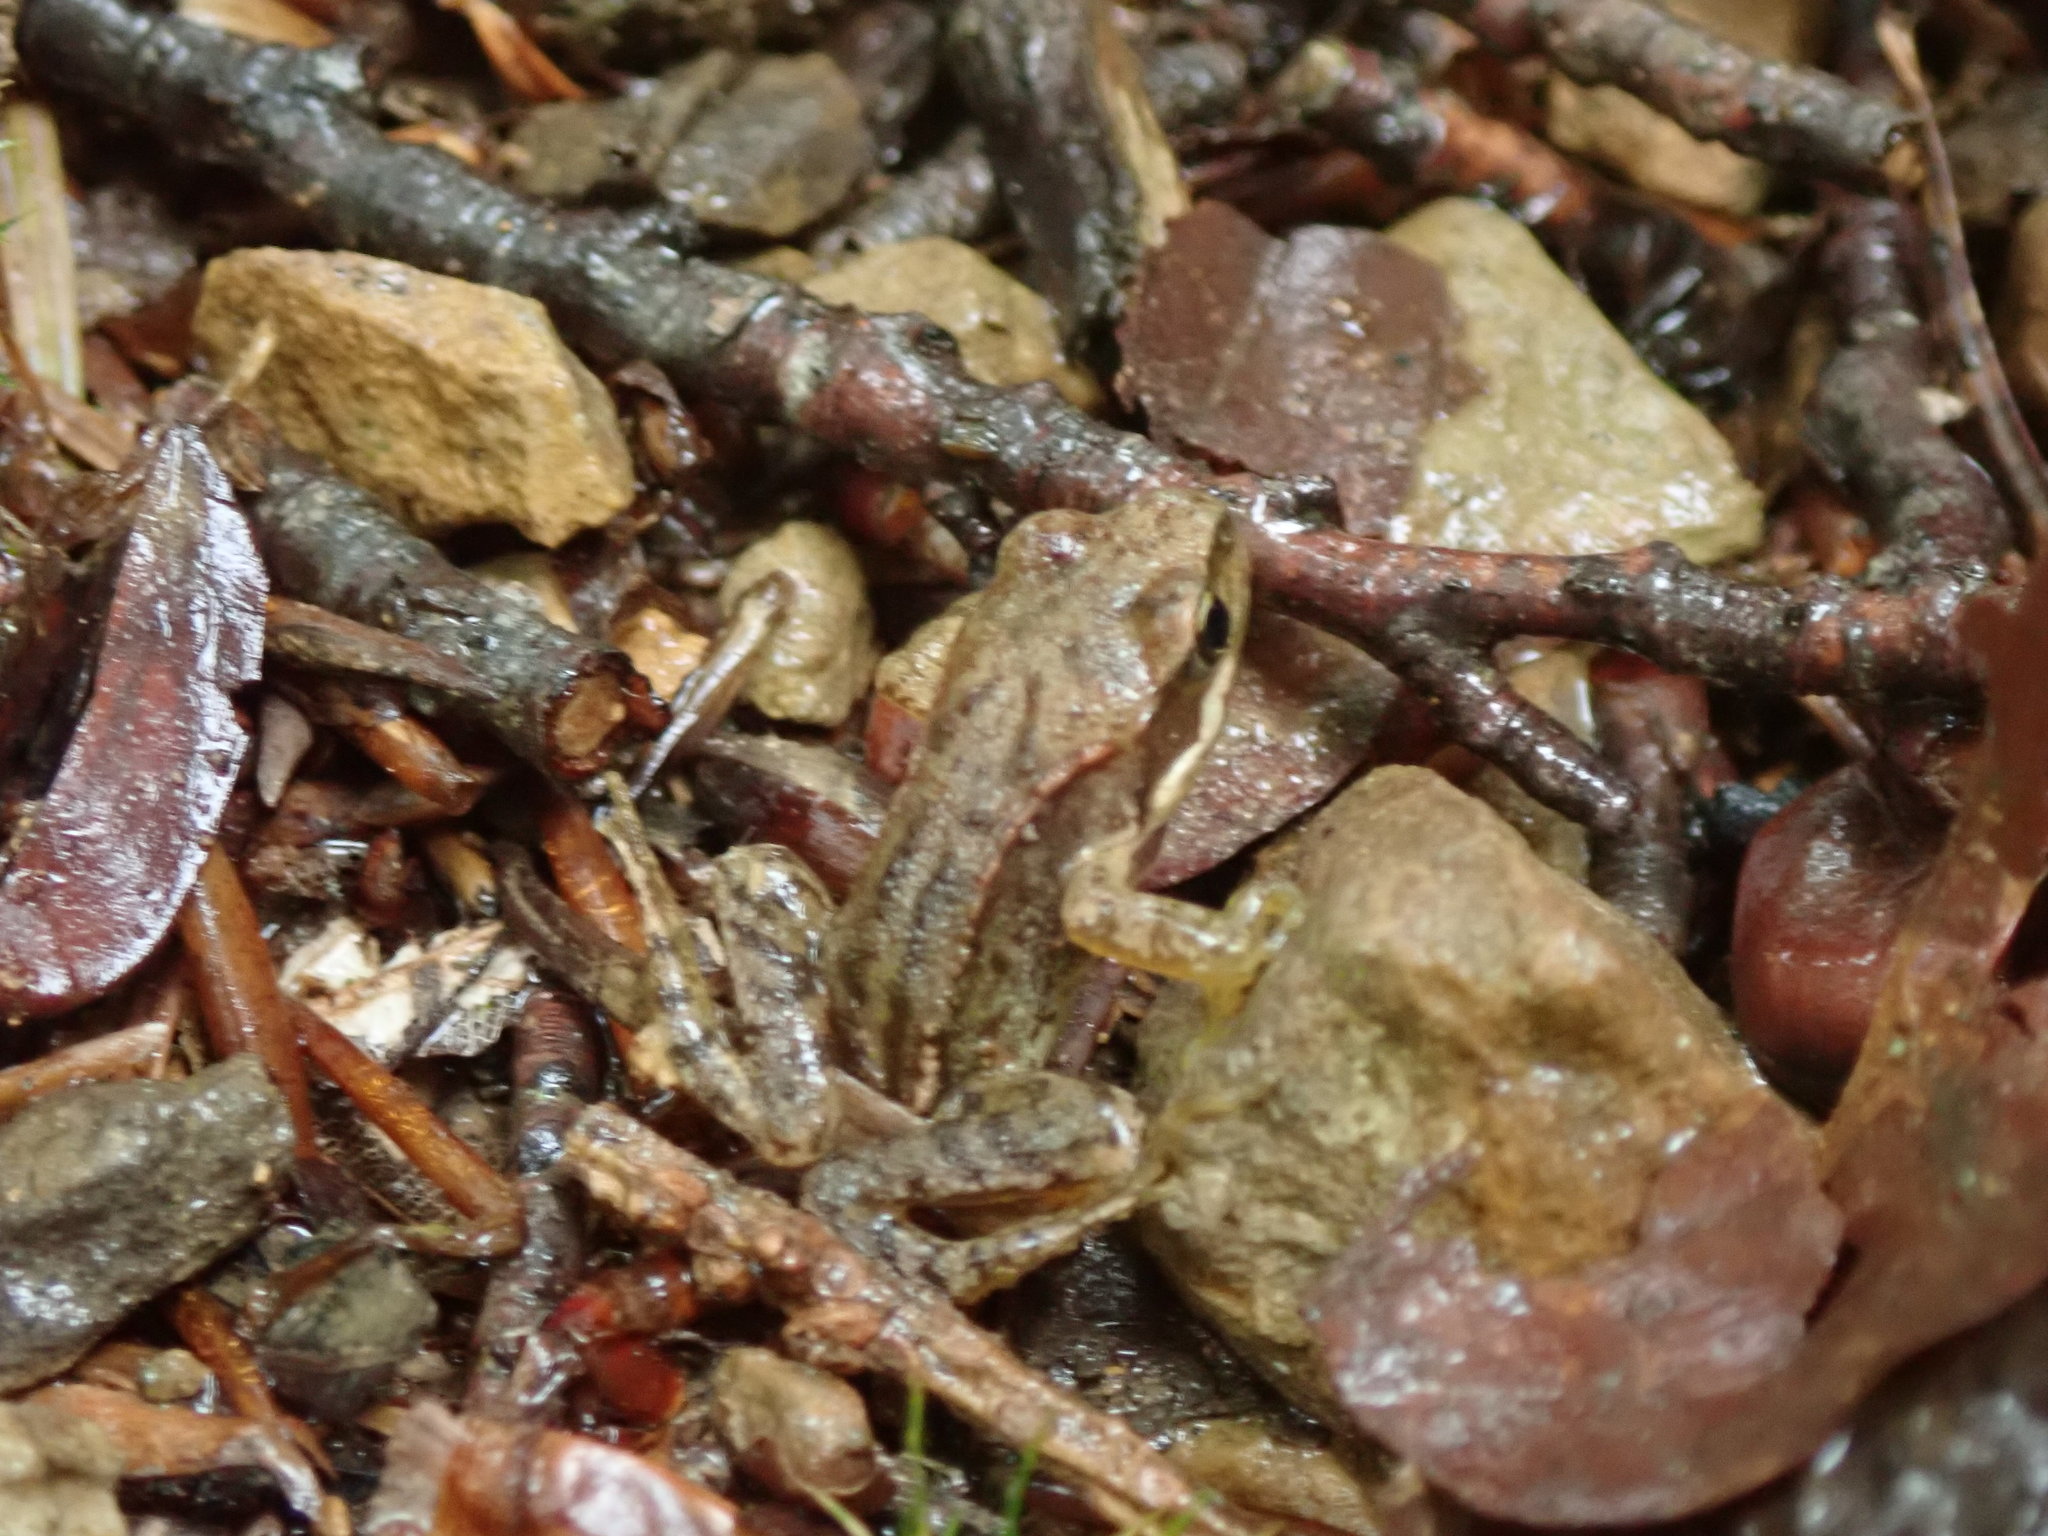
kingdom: Animalia
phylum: Chordata
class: Amphibia
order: Anura
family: Ranidae
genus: Rana
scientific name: Rana temporaria
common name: Common frog
